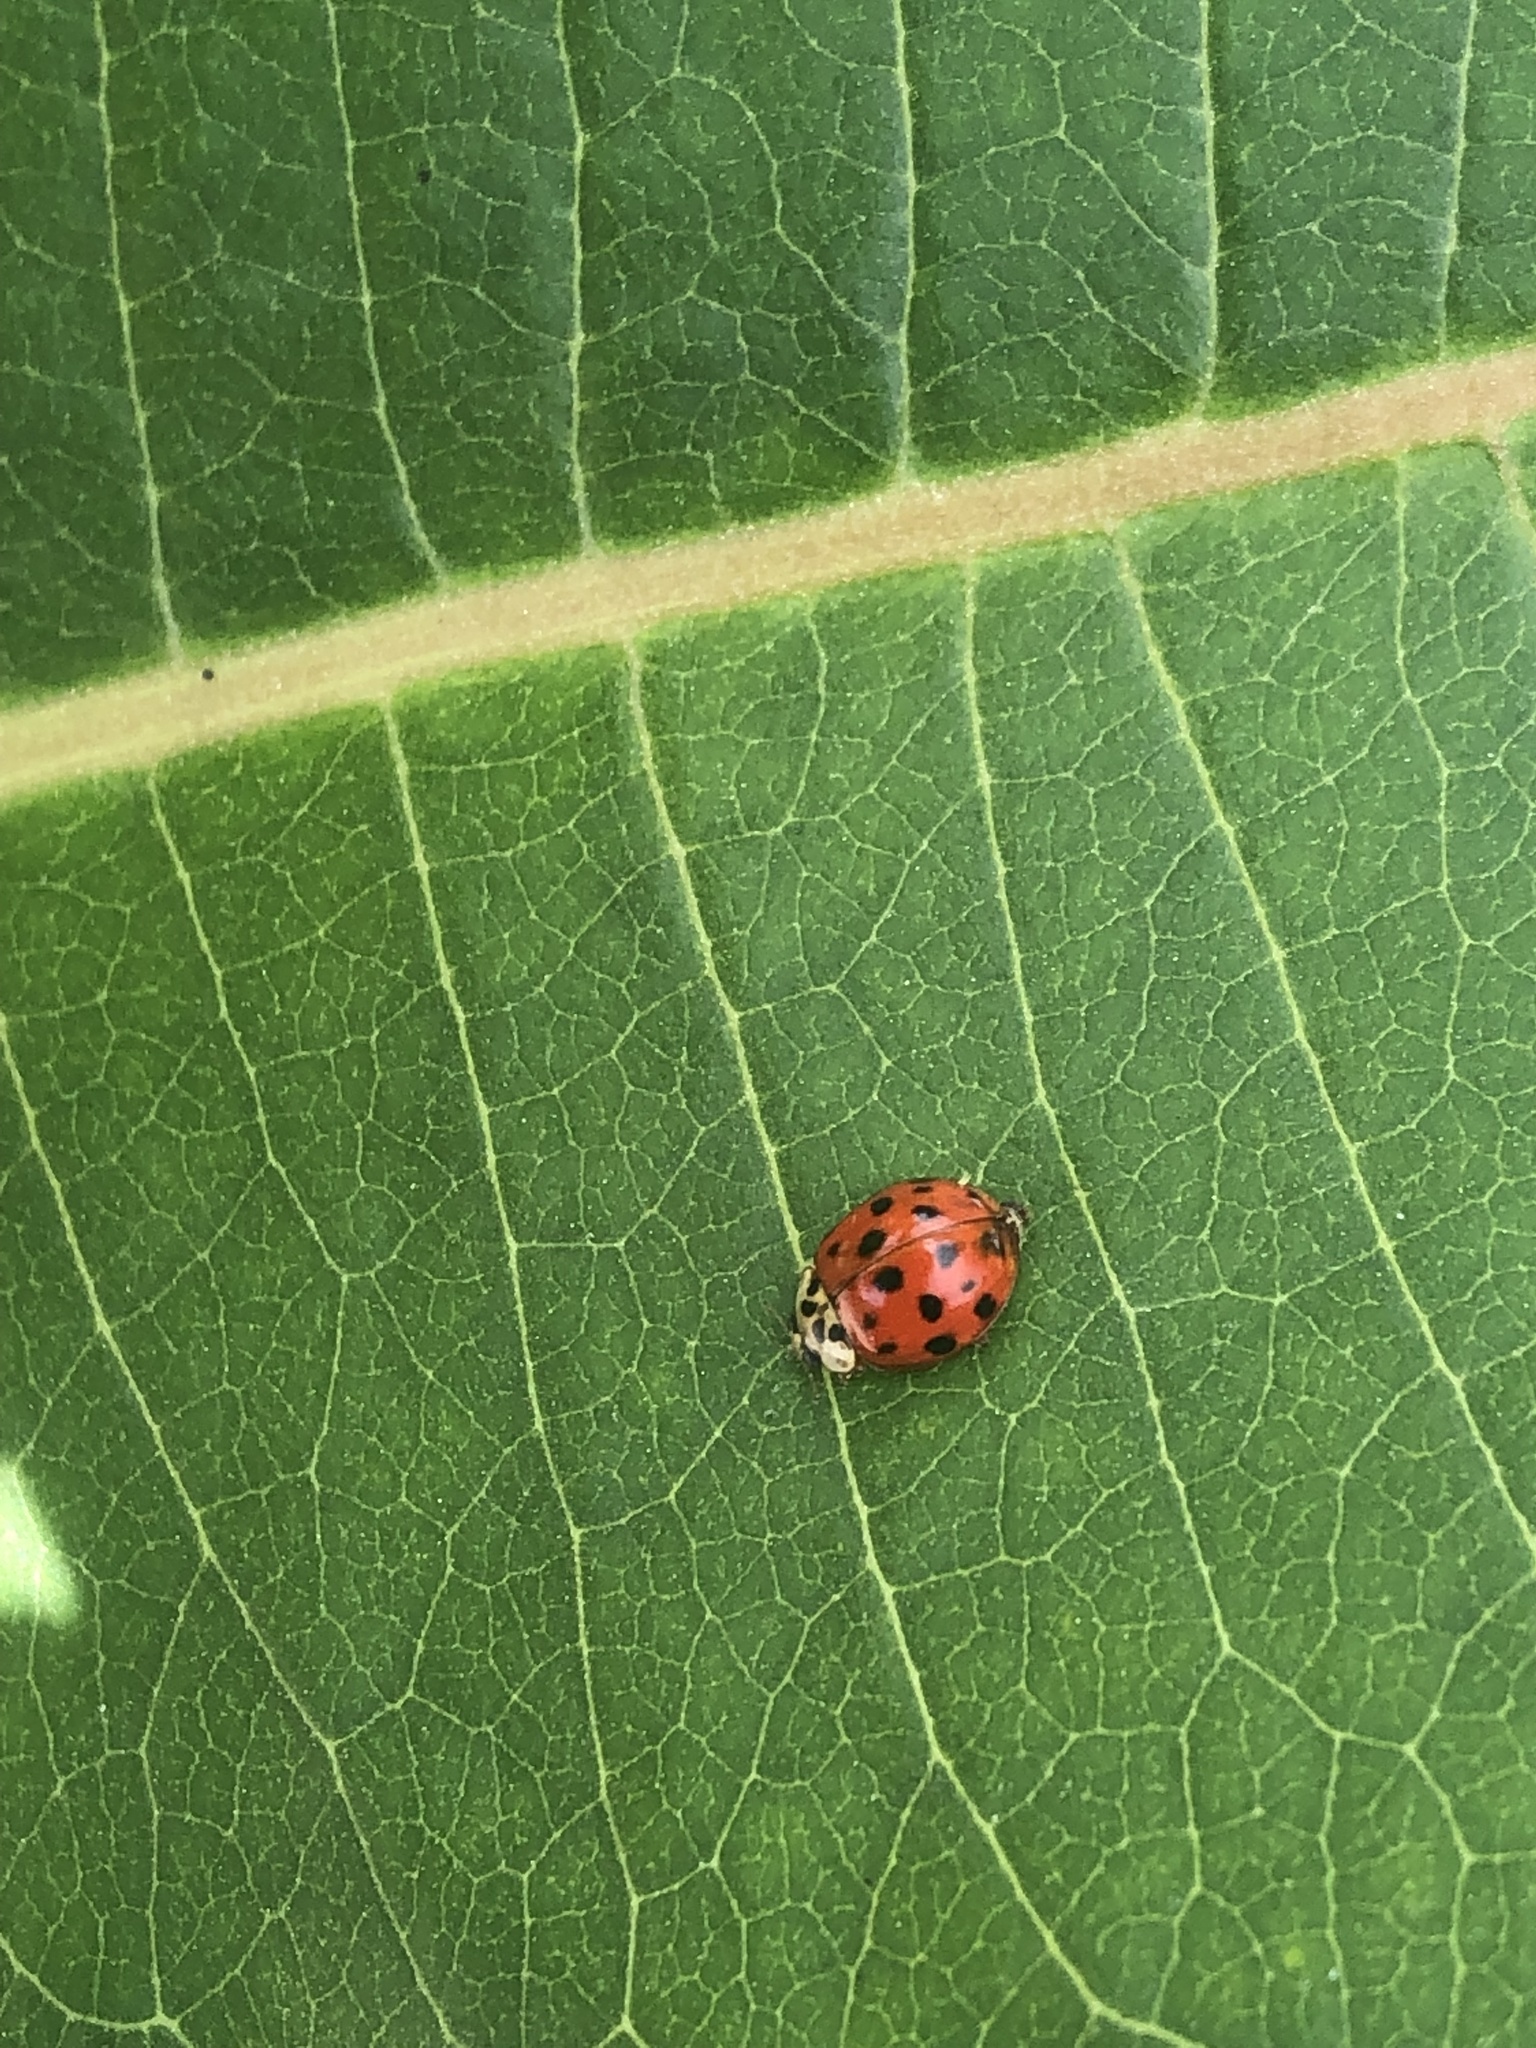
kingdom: Animalia
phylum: Arthropoda
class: Insecta
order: Coleoptera
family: Coccinellidae
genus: Harmonia
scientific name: Harmonia axyridis
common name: Harlequin ladybird
